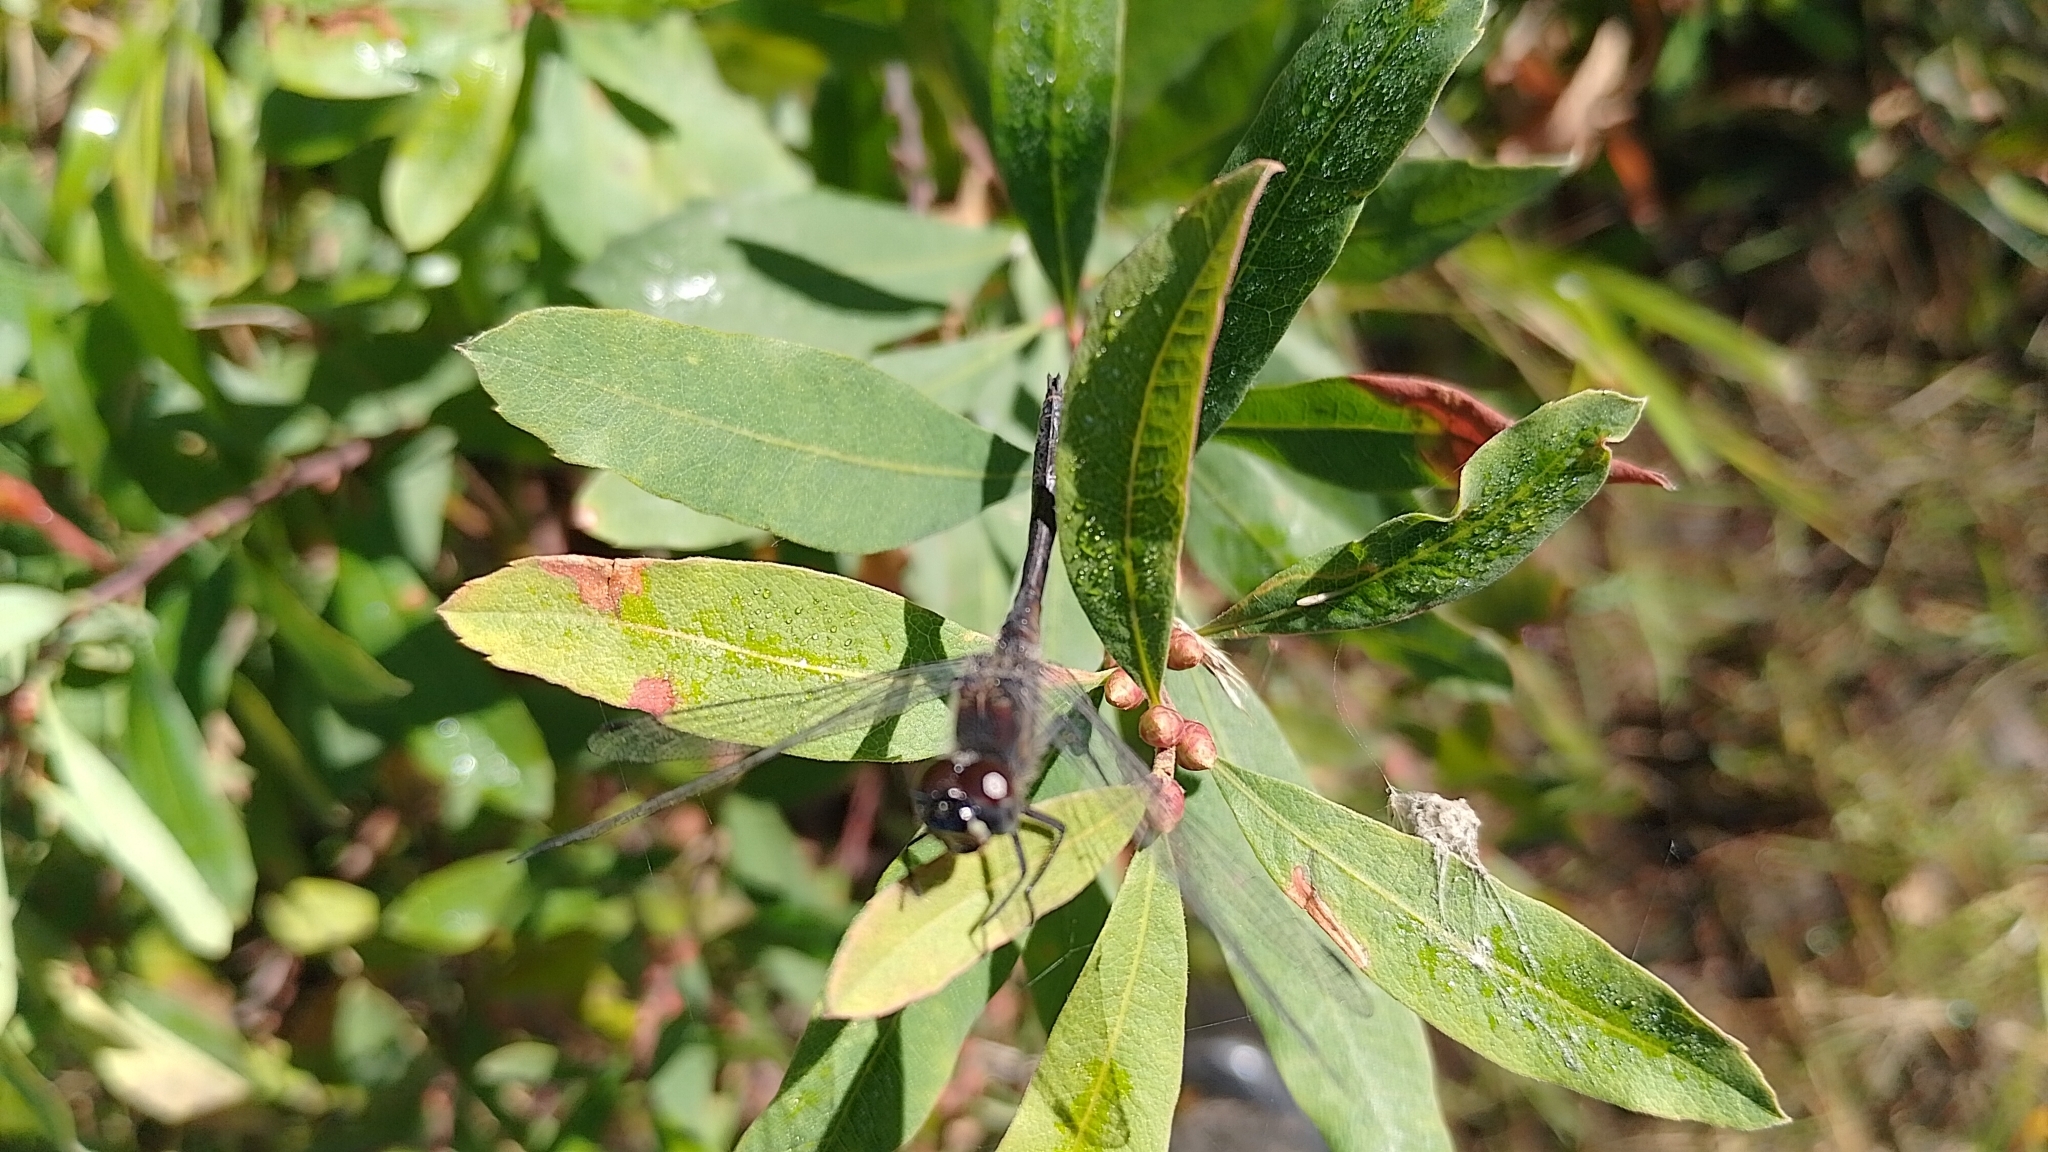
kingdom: Animalia
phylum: Arthropoda
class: Insecta
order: Odonata
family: Libellulidae
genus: Sympetrum
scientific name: Sympetrum danae
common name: Black darter
